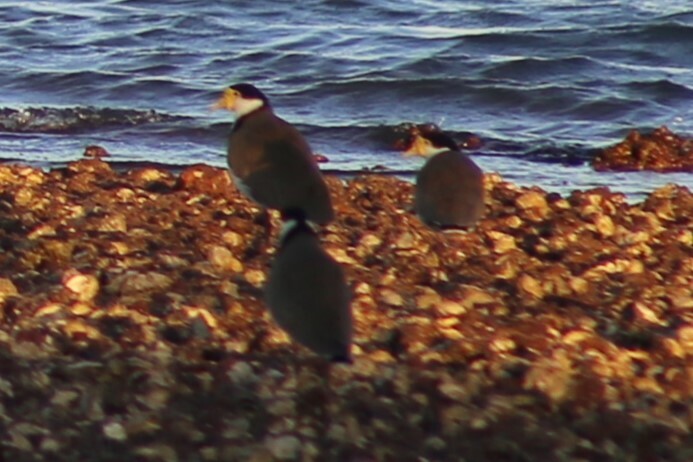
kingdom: Animalia
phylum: Chordata
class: Aves
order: Charadriiformes
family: Charadriidae
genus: Vanellus
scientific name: Vanellus miles
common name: Masked lapwing
